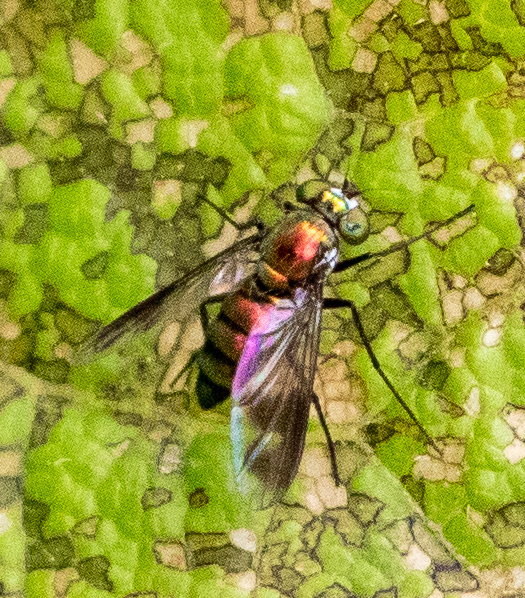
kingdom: Animalia
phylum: Arthropoda
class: Insecta
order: Diptera
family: Dolichopodidae
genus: Condylostylus
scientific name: Condylostylus patibulatus
